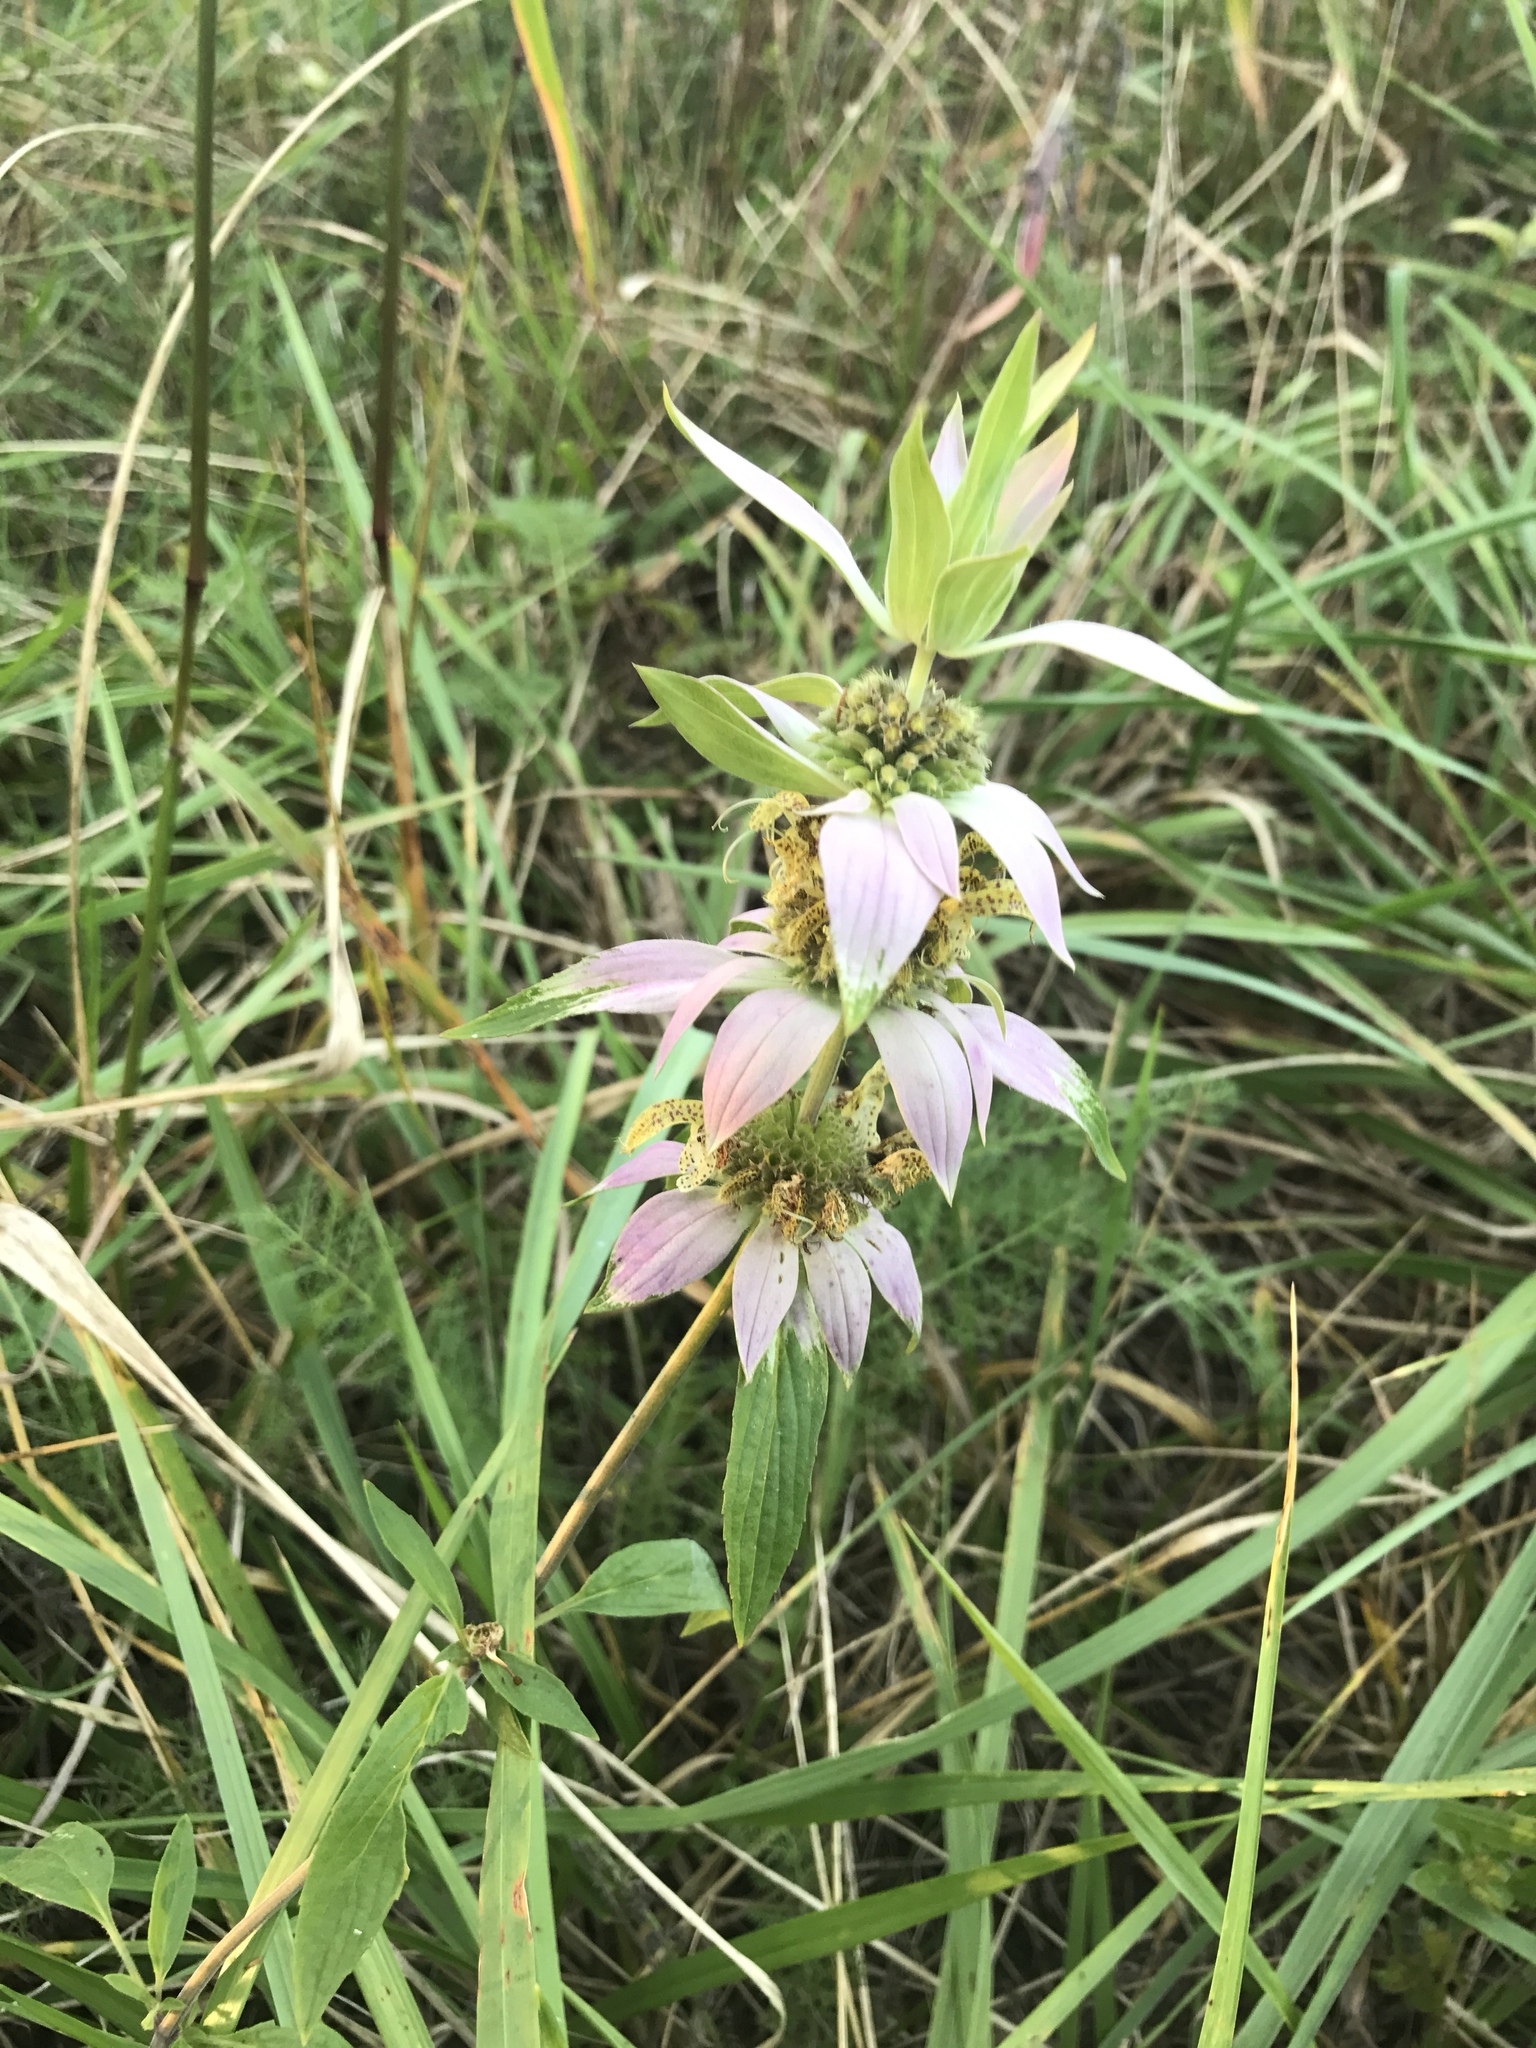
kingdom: Plantae
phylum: Tracheophyta
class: Magnoliopsida
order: Lamiales
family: Lamiaceae
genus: Monarda
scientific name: Monarda punctata
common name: Dotted monarda
